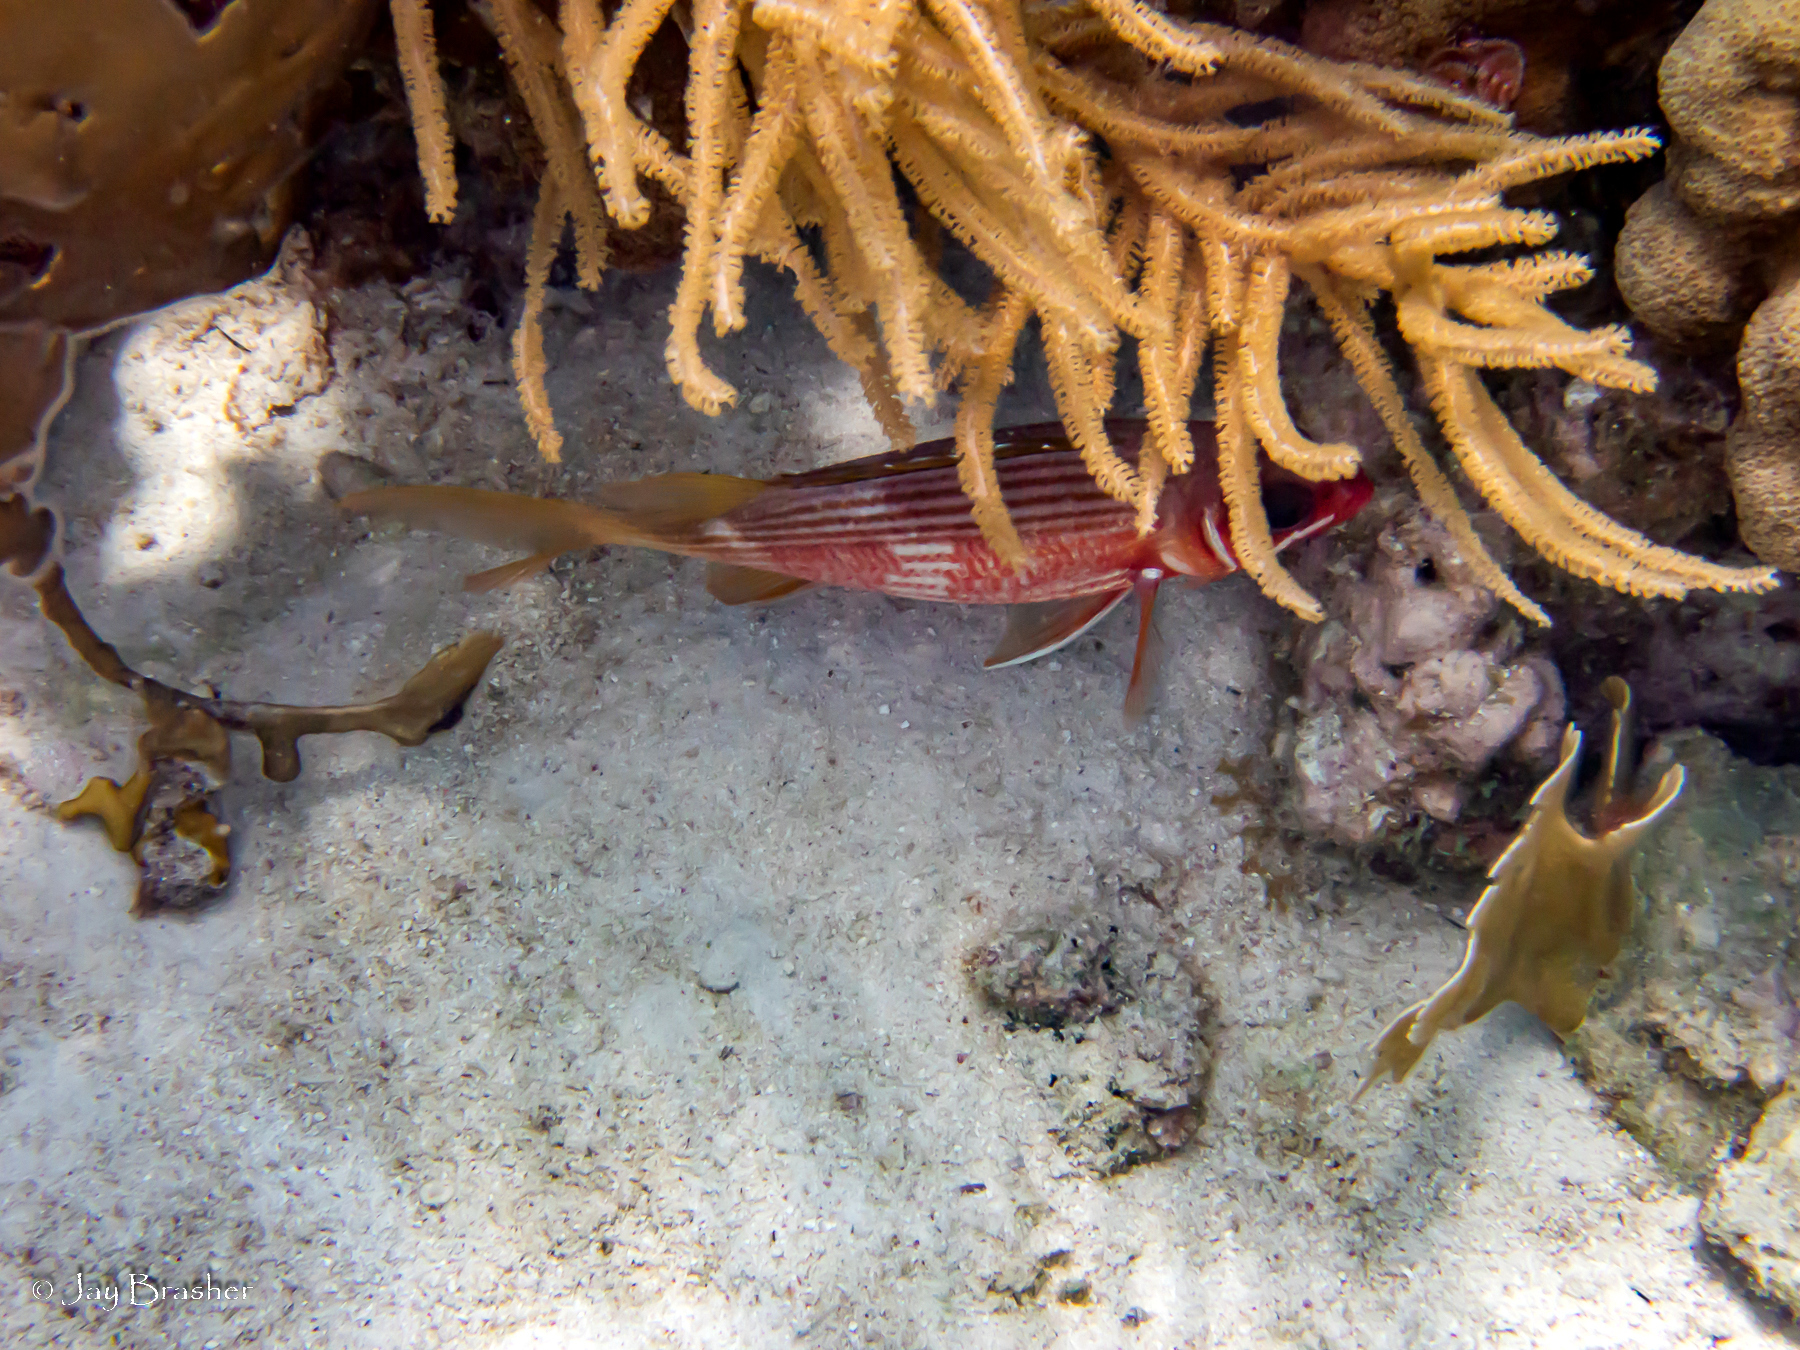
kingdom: Animalia
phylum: Chordata
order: Beryciformes
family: Holocentridae
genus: Holocentrus
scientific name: Holocentrus rufus
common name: Longspine squirrelfish
